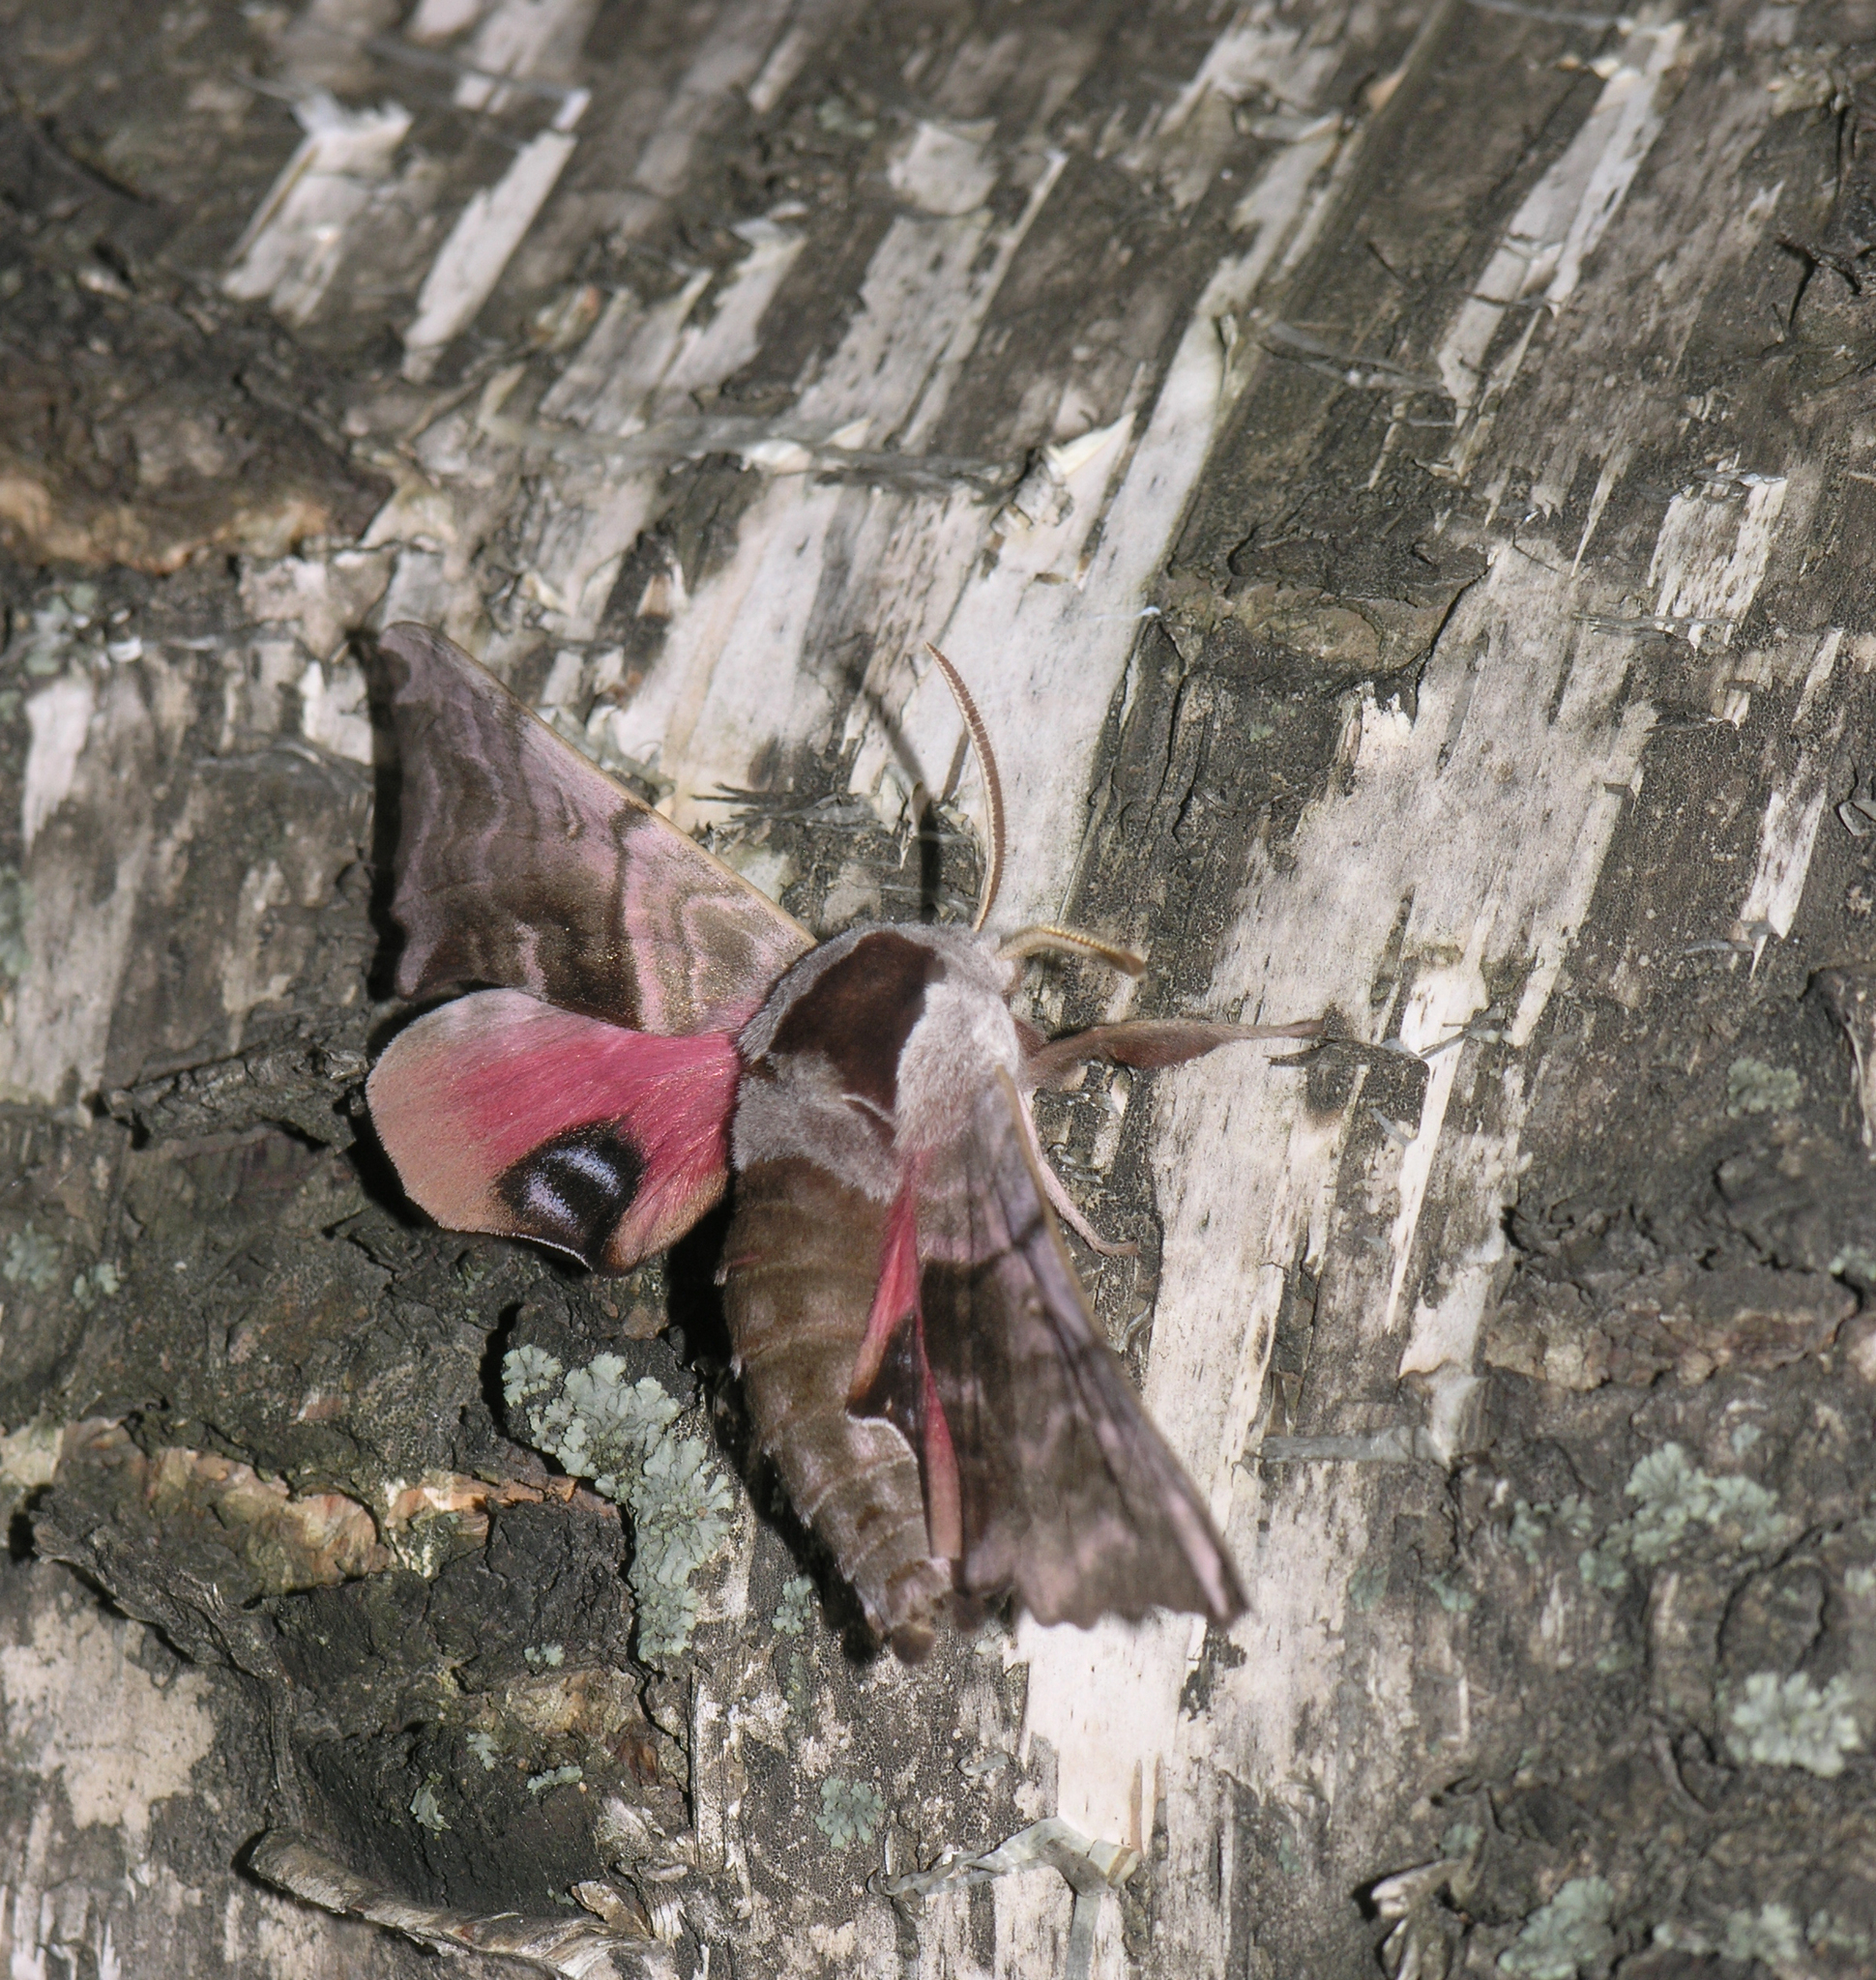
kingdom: Animalia
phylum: Arthropoda
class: Insecta
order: Lepidoptera
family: Sphingidae
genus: Smerinthus
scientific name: Smerinthus caecus
